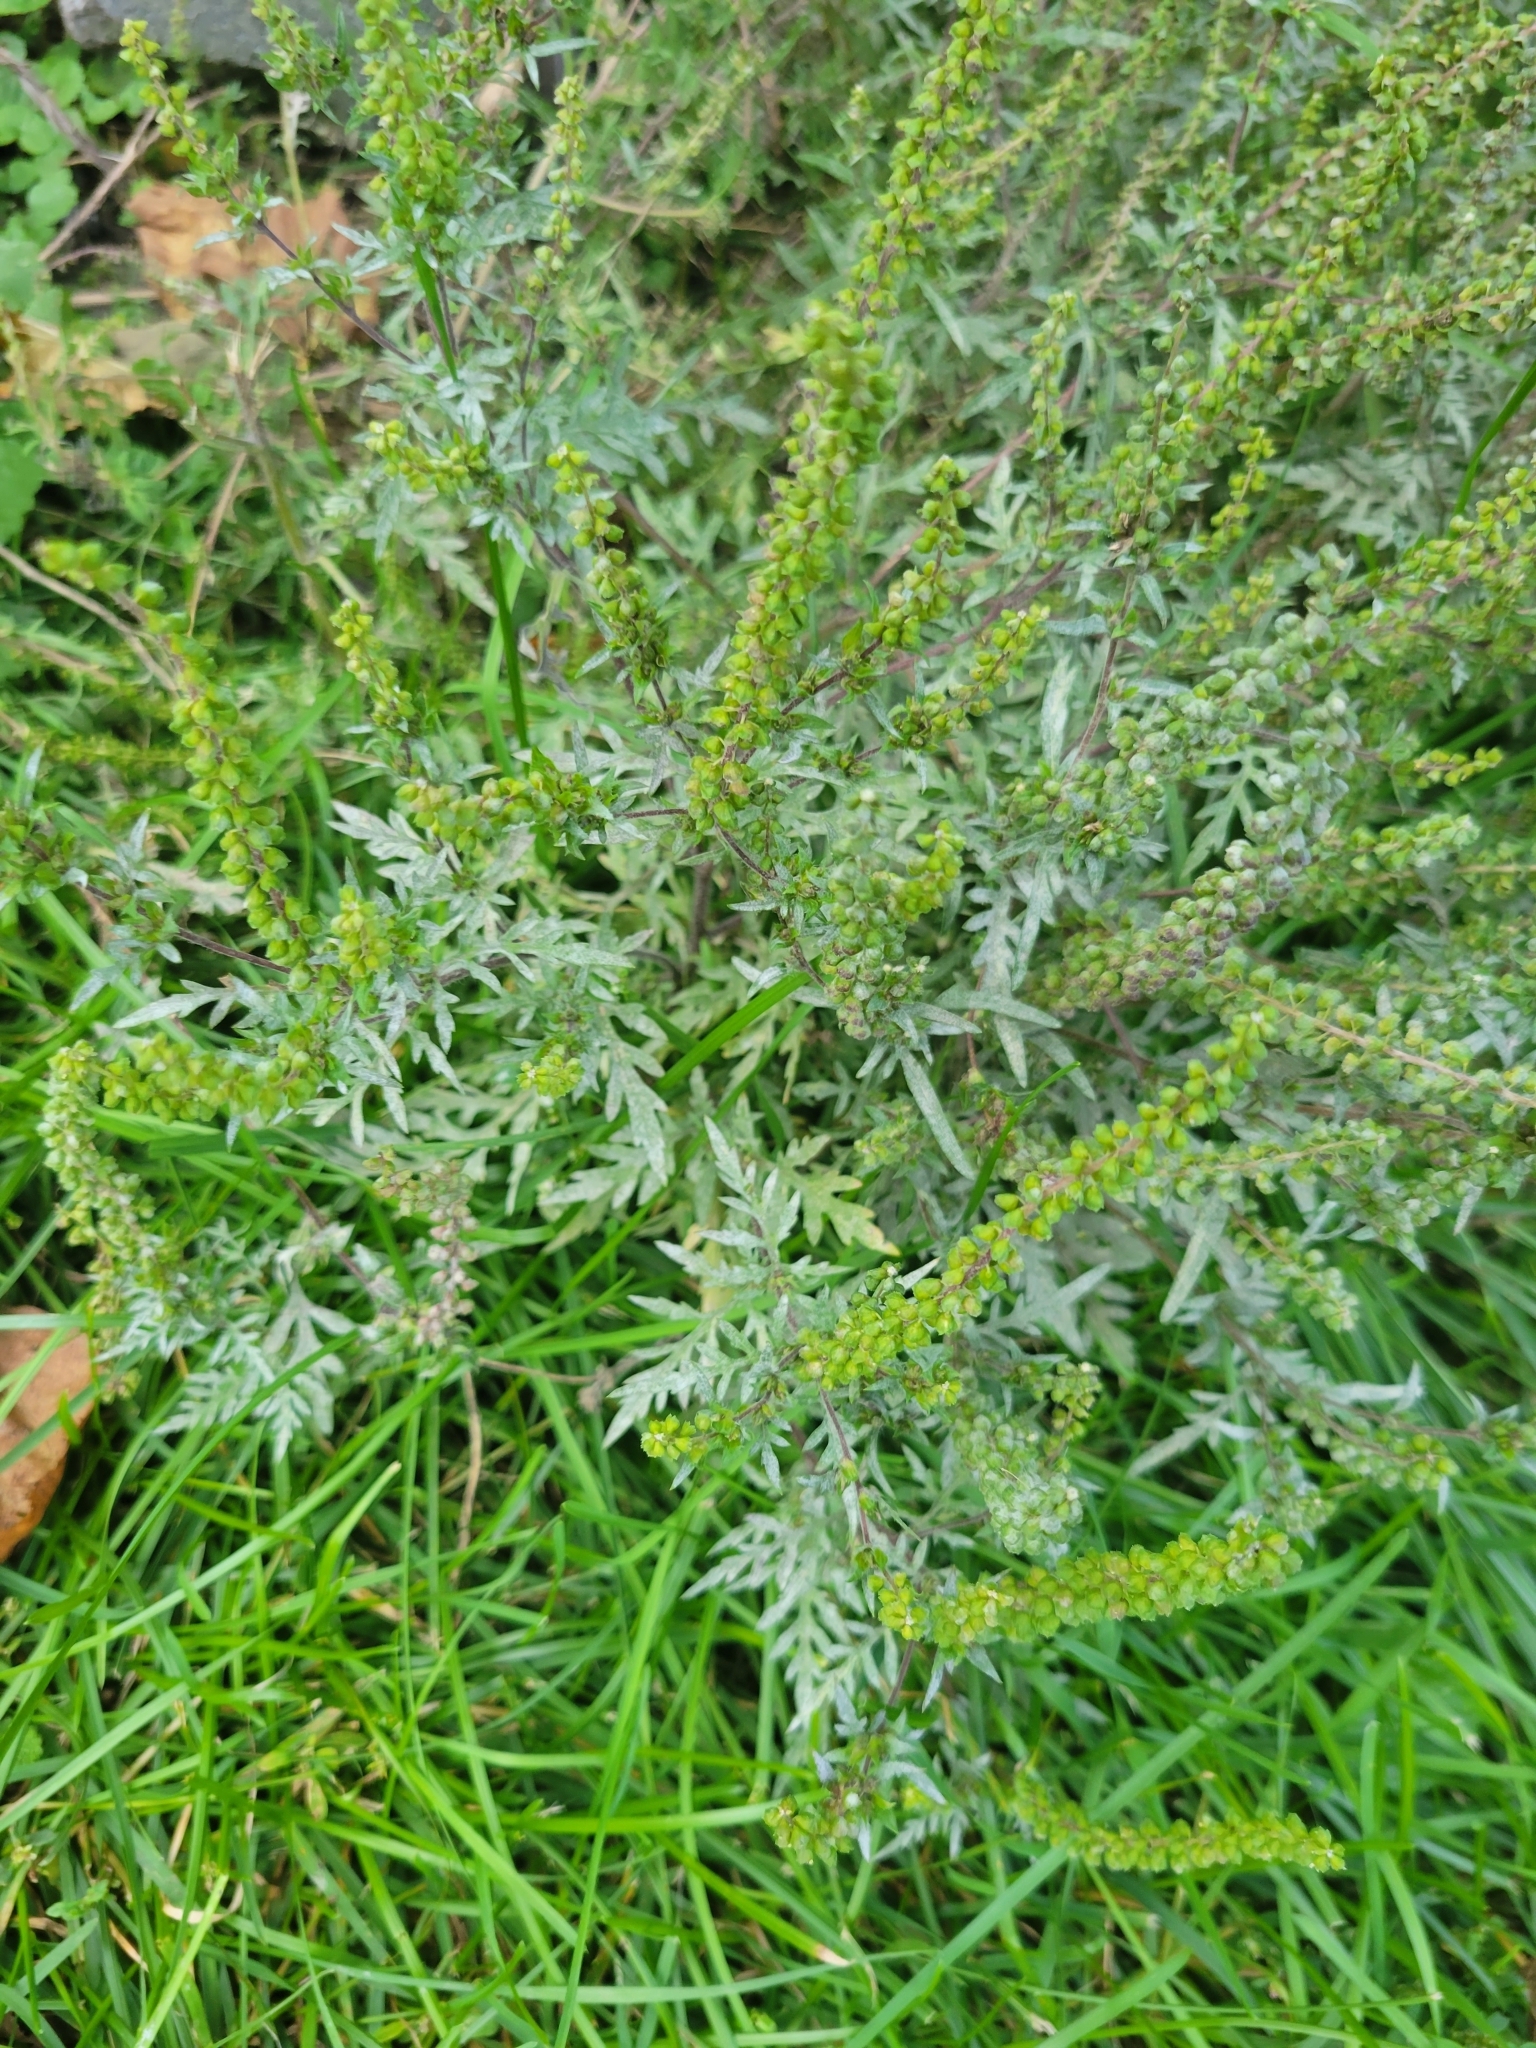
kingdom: Plantae
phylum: Tracheophyta
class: Magnoliopsida
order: Asterales
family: Asteraceae
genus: Ambrosia
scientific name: Ambrosia artemisiifolia
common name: Annual ragweed
